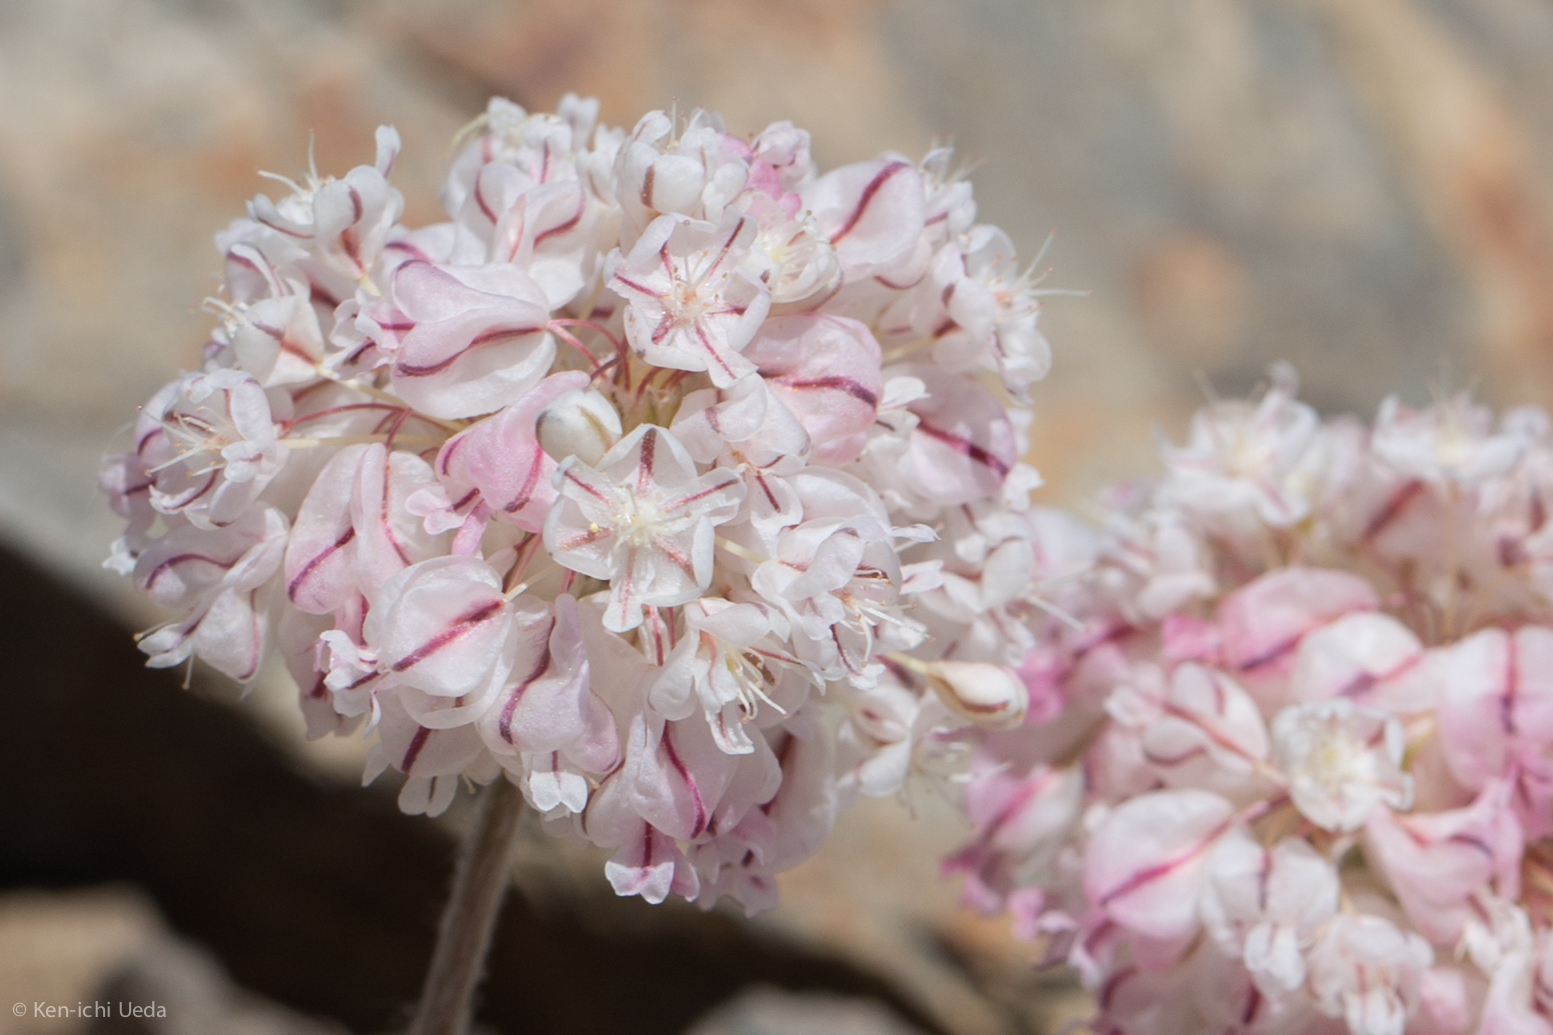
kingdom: Plantae
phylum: Tracheophyta
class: Magnoliopsida
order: Caryophyllales
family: Polygonaceae
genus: Eriogonum
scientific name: Eriogonum ovalifolium
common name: Cushion buckwheat
